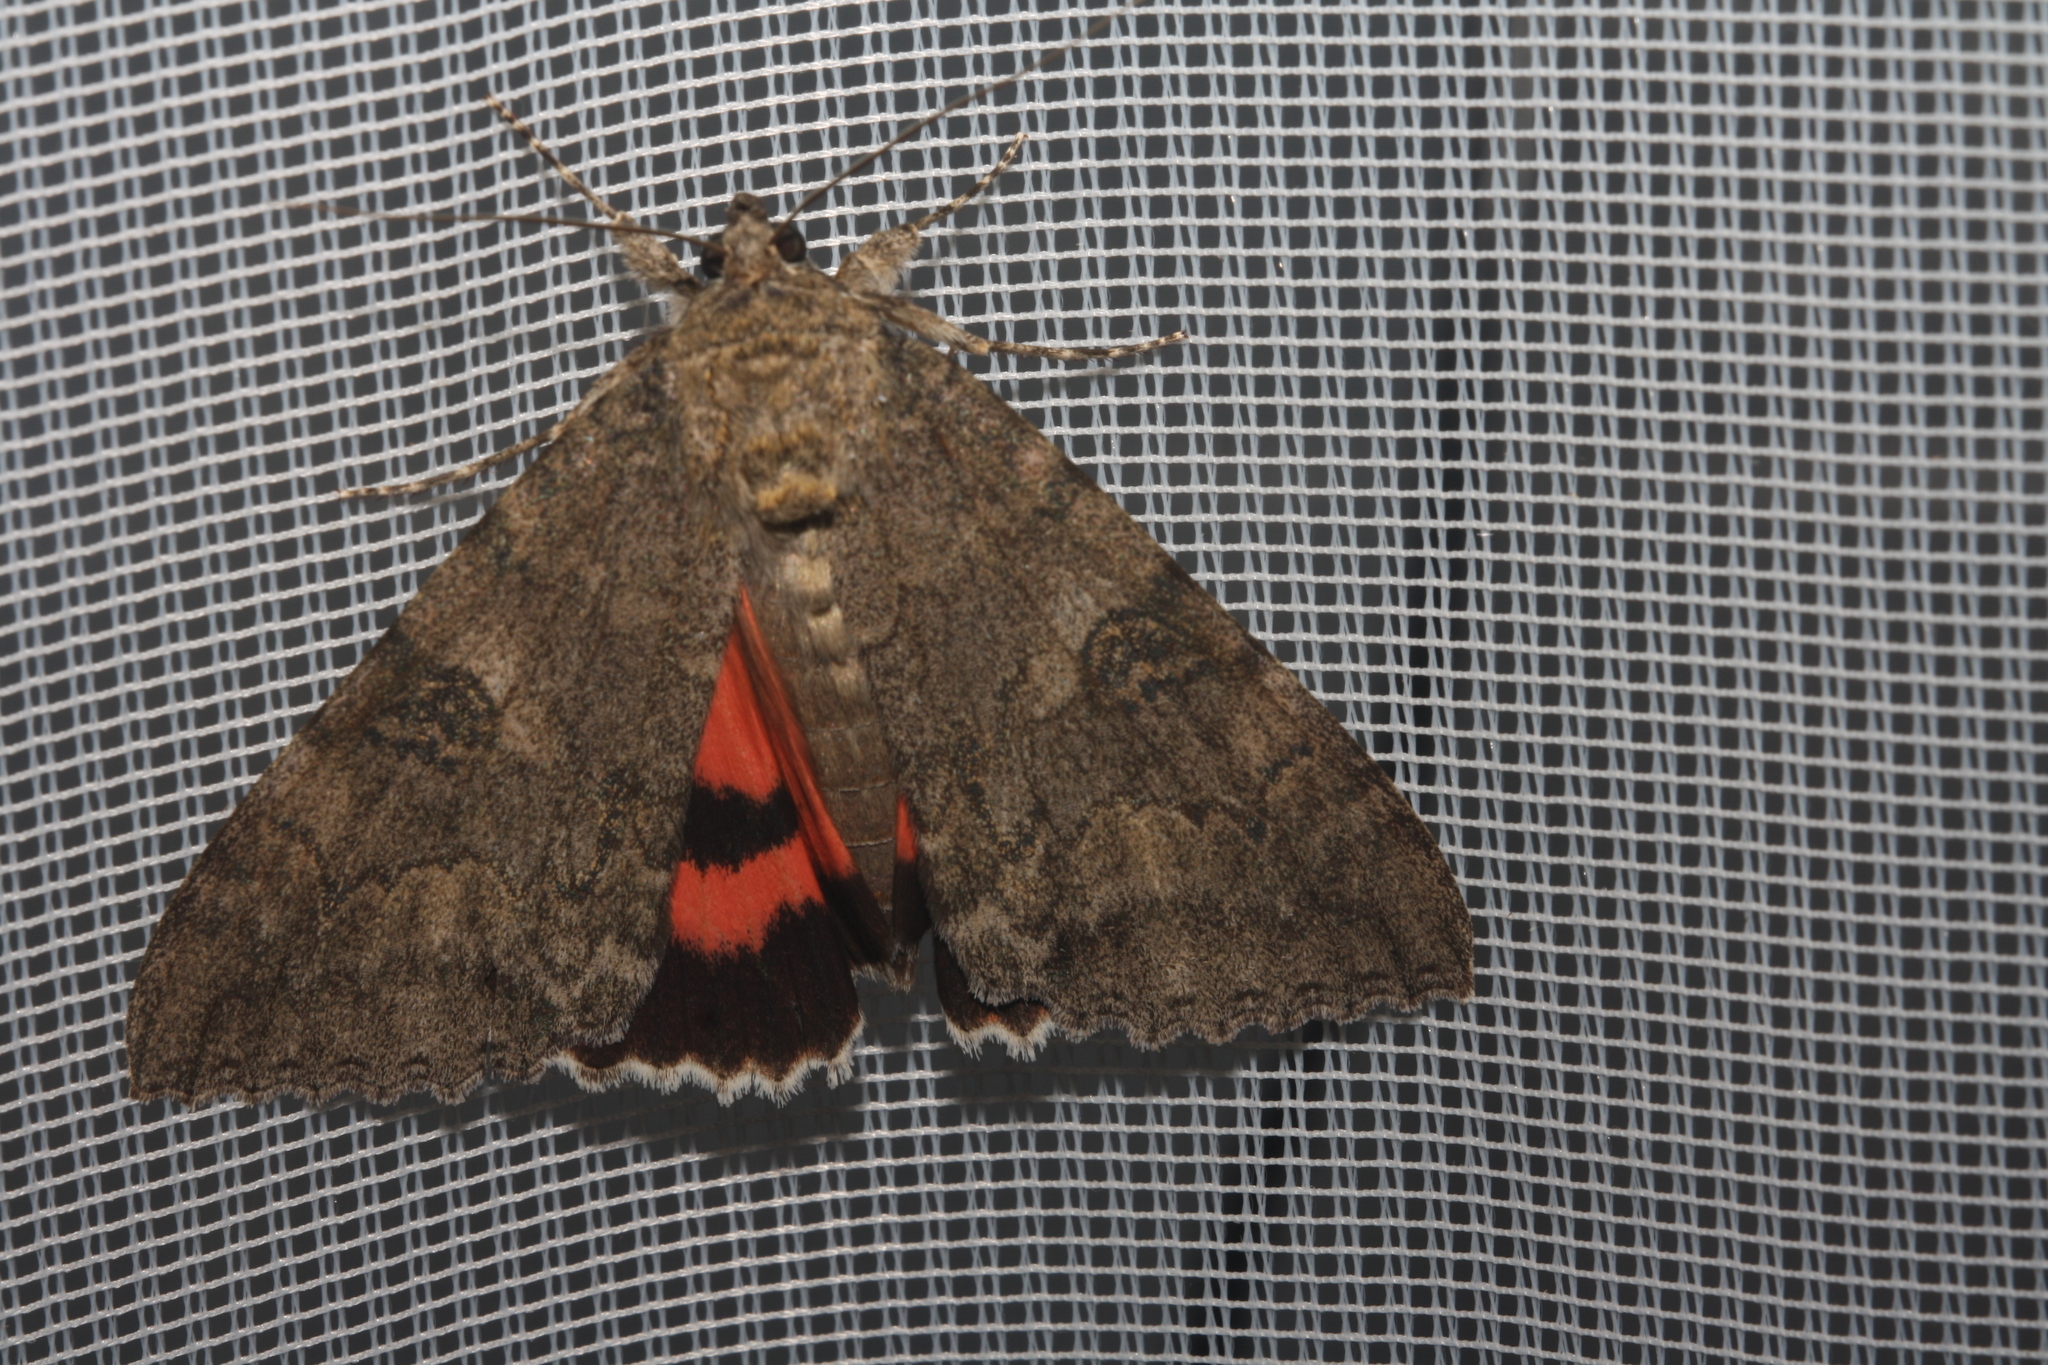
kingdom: Animalia
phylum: Arthropoda
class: Insecta
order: Lepidoptera
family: Erebidae
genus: Catocala
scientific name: Catocala nupta
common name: Red underwing
